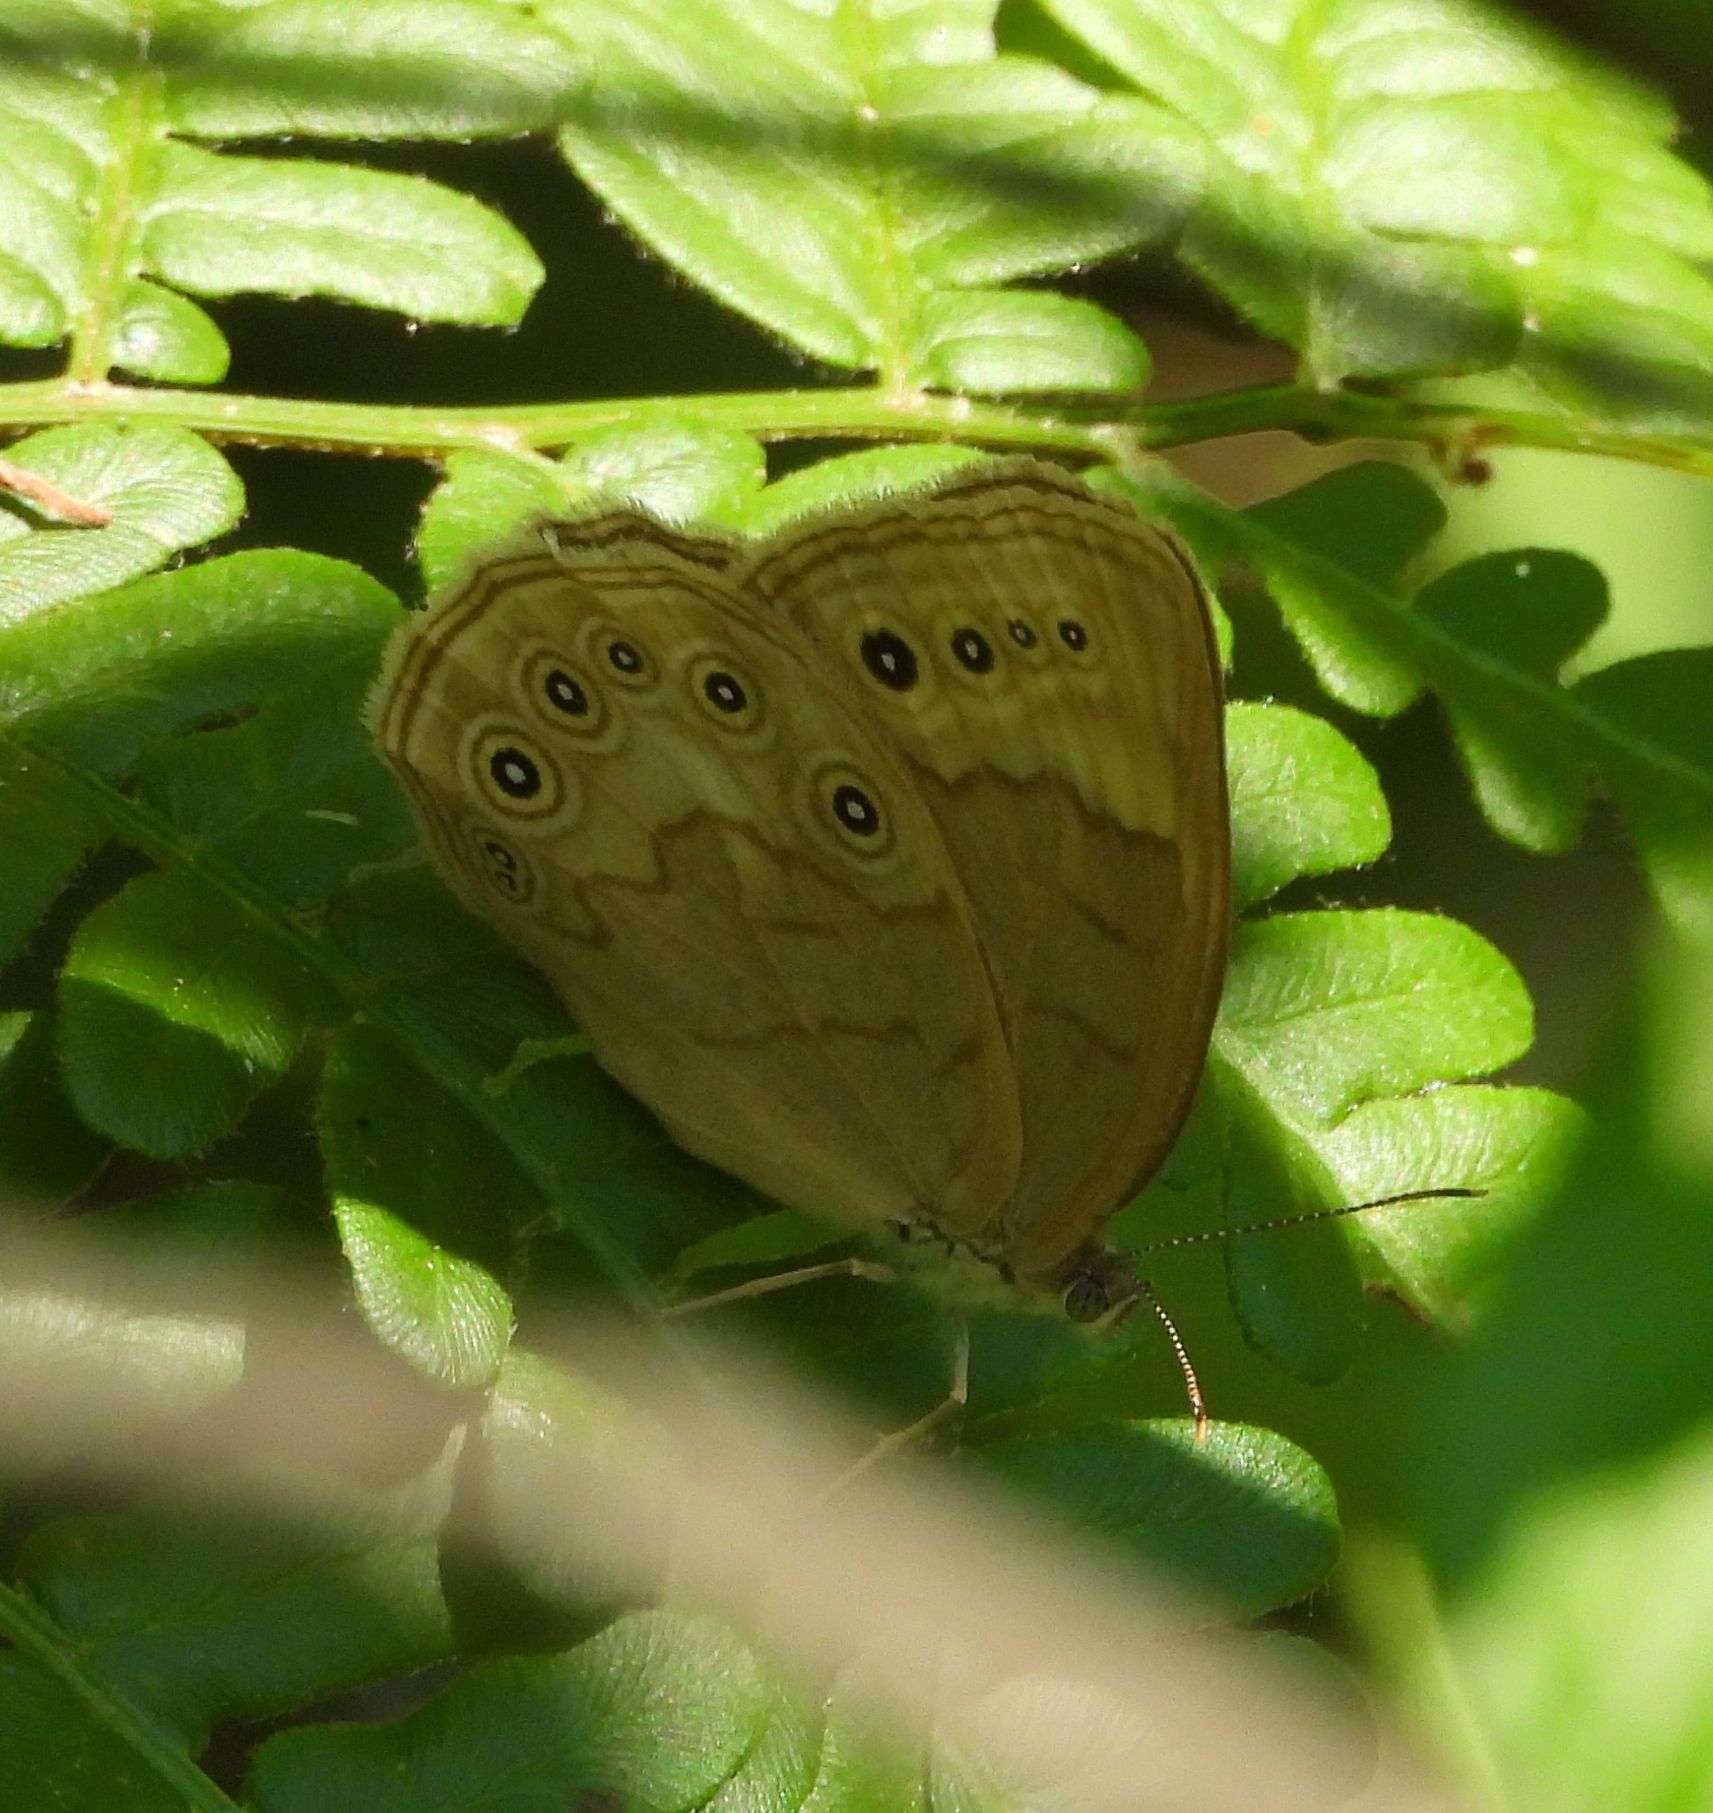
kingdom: Animalia
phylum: Arthropoda
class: Insecta
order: Lepidoptera
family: Nymphalidae
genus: Lethe
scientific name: Lethe eurydice
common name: Eyed brown
